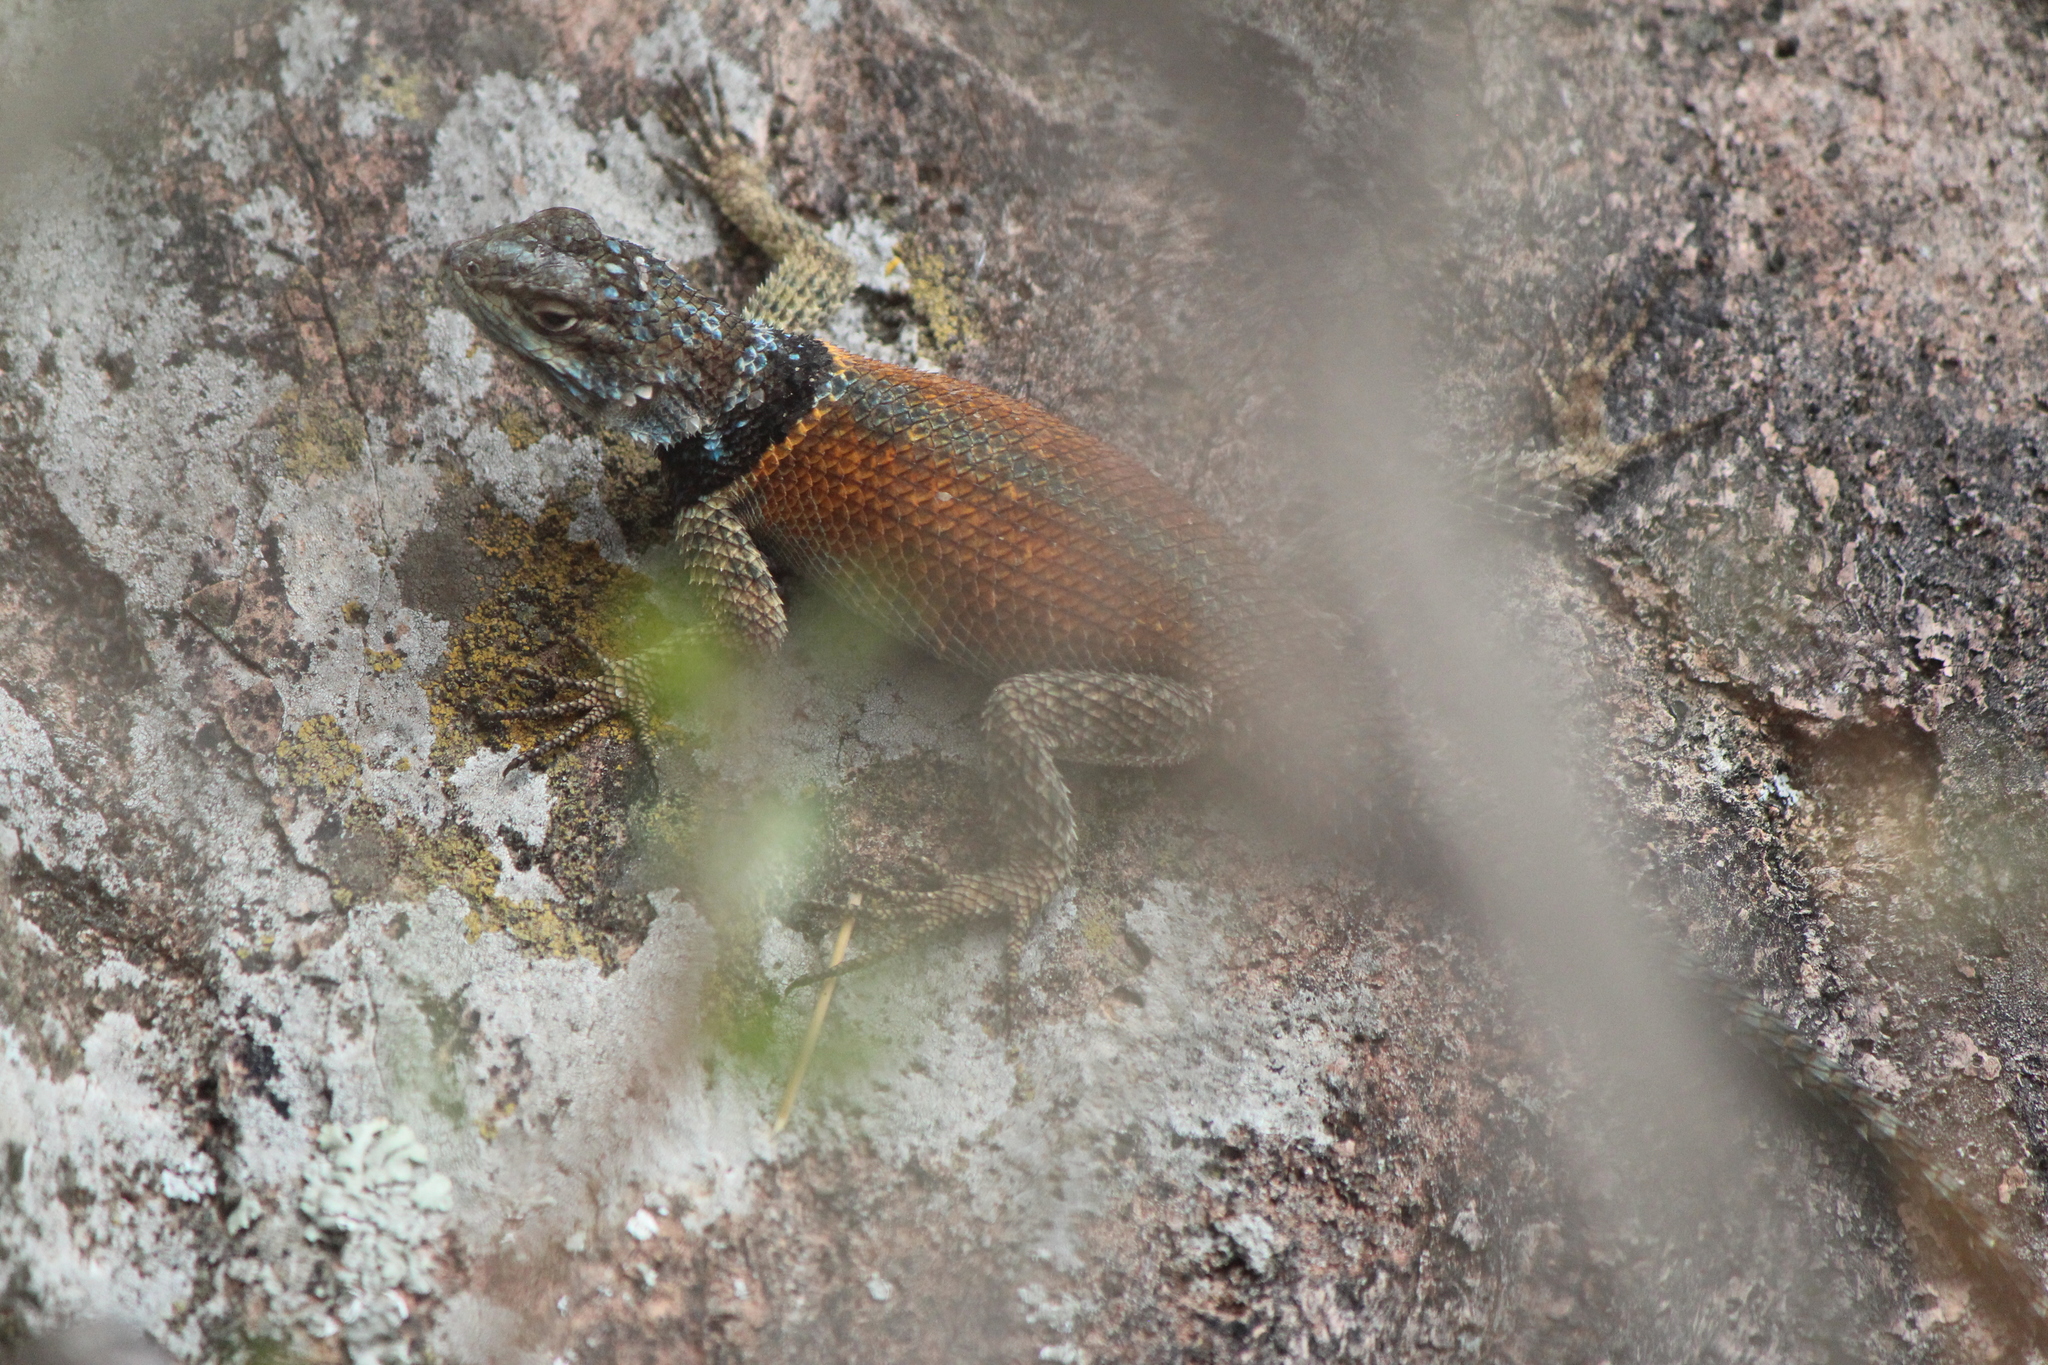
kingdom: Animalia
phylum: Chordata
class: Squamata
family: Phrynosomatidae
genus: Sceloporus
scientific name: Sceloporus minor
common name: Minor lizard
